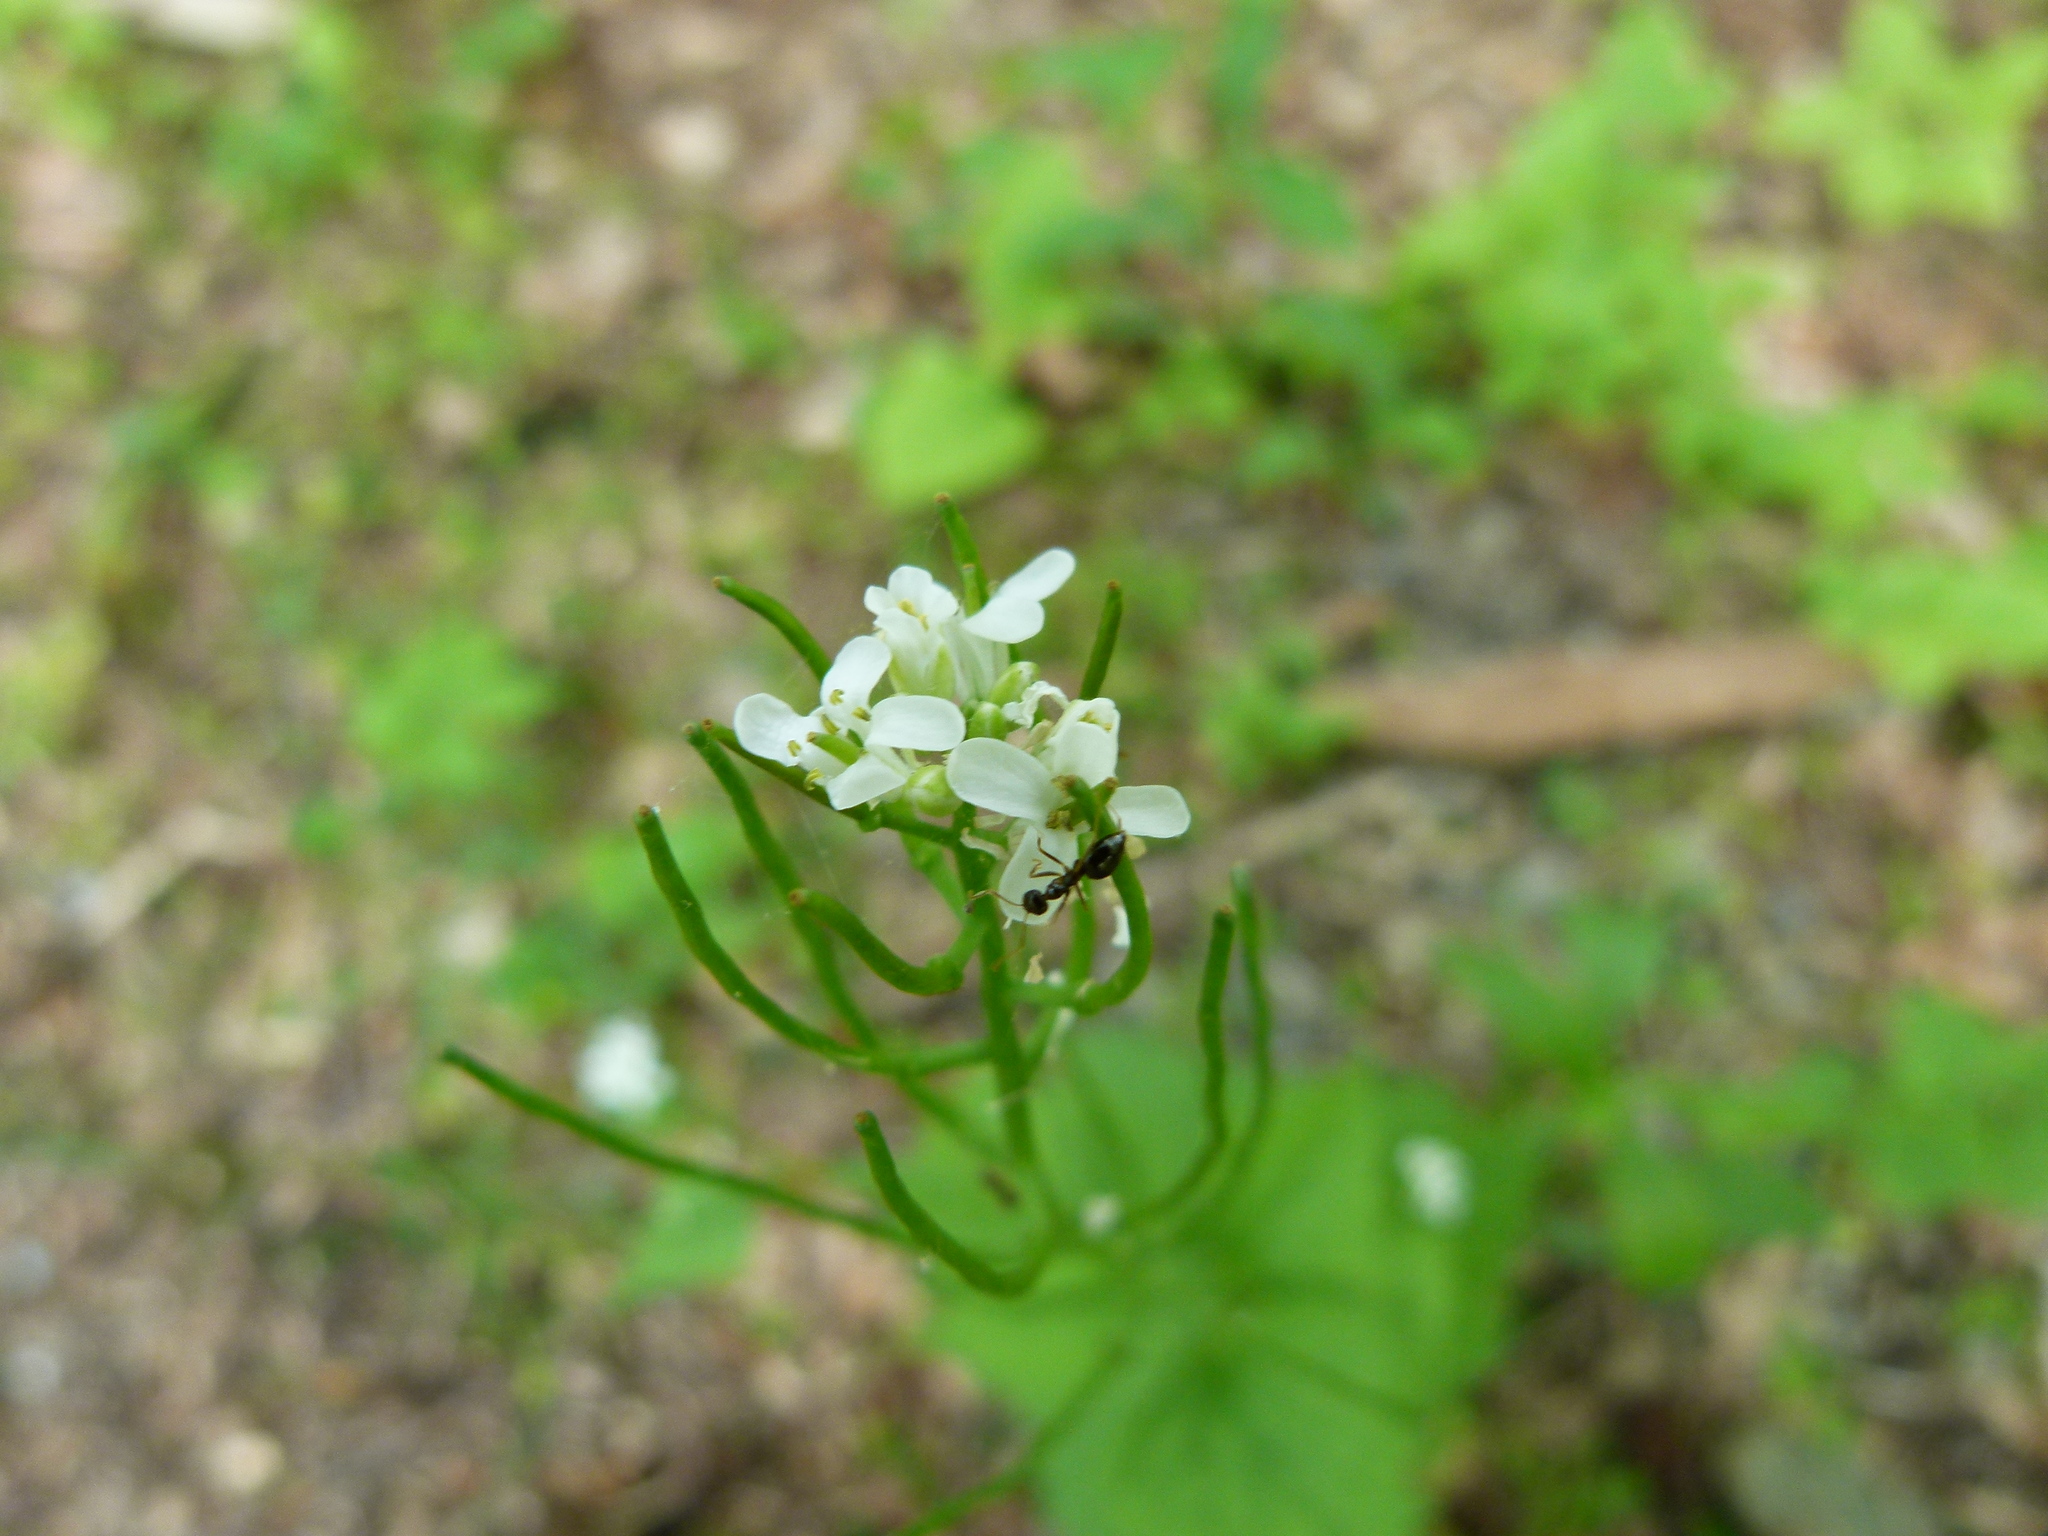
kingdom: Plantae
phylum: Tracheophyta
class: Magnoliopsida
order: Brassicales
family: Brassicaceae
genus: Alliaria
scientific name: Alliaria petiolata
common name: Garlic mustard
